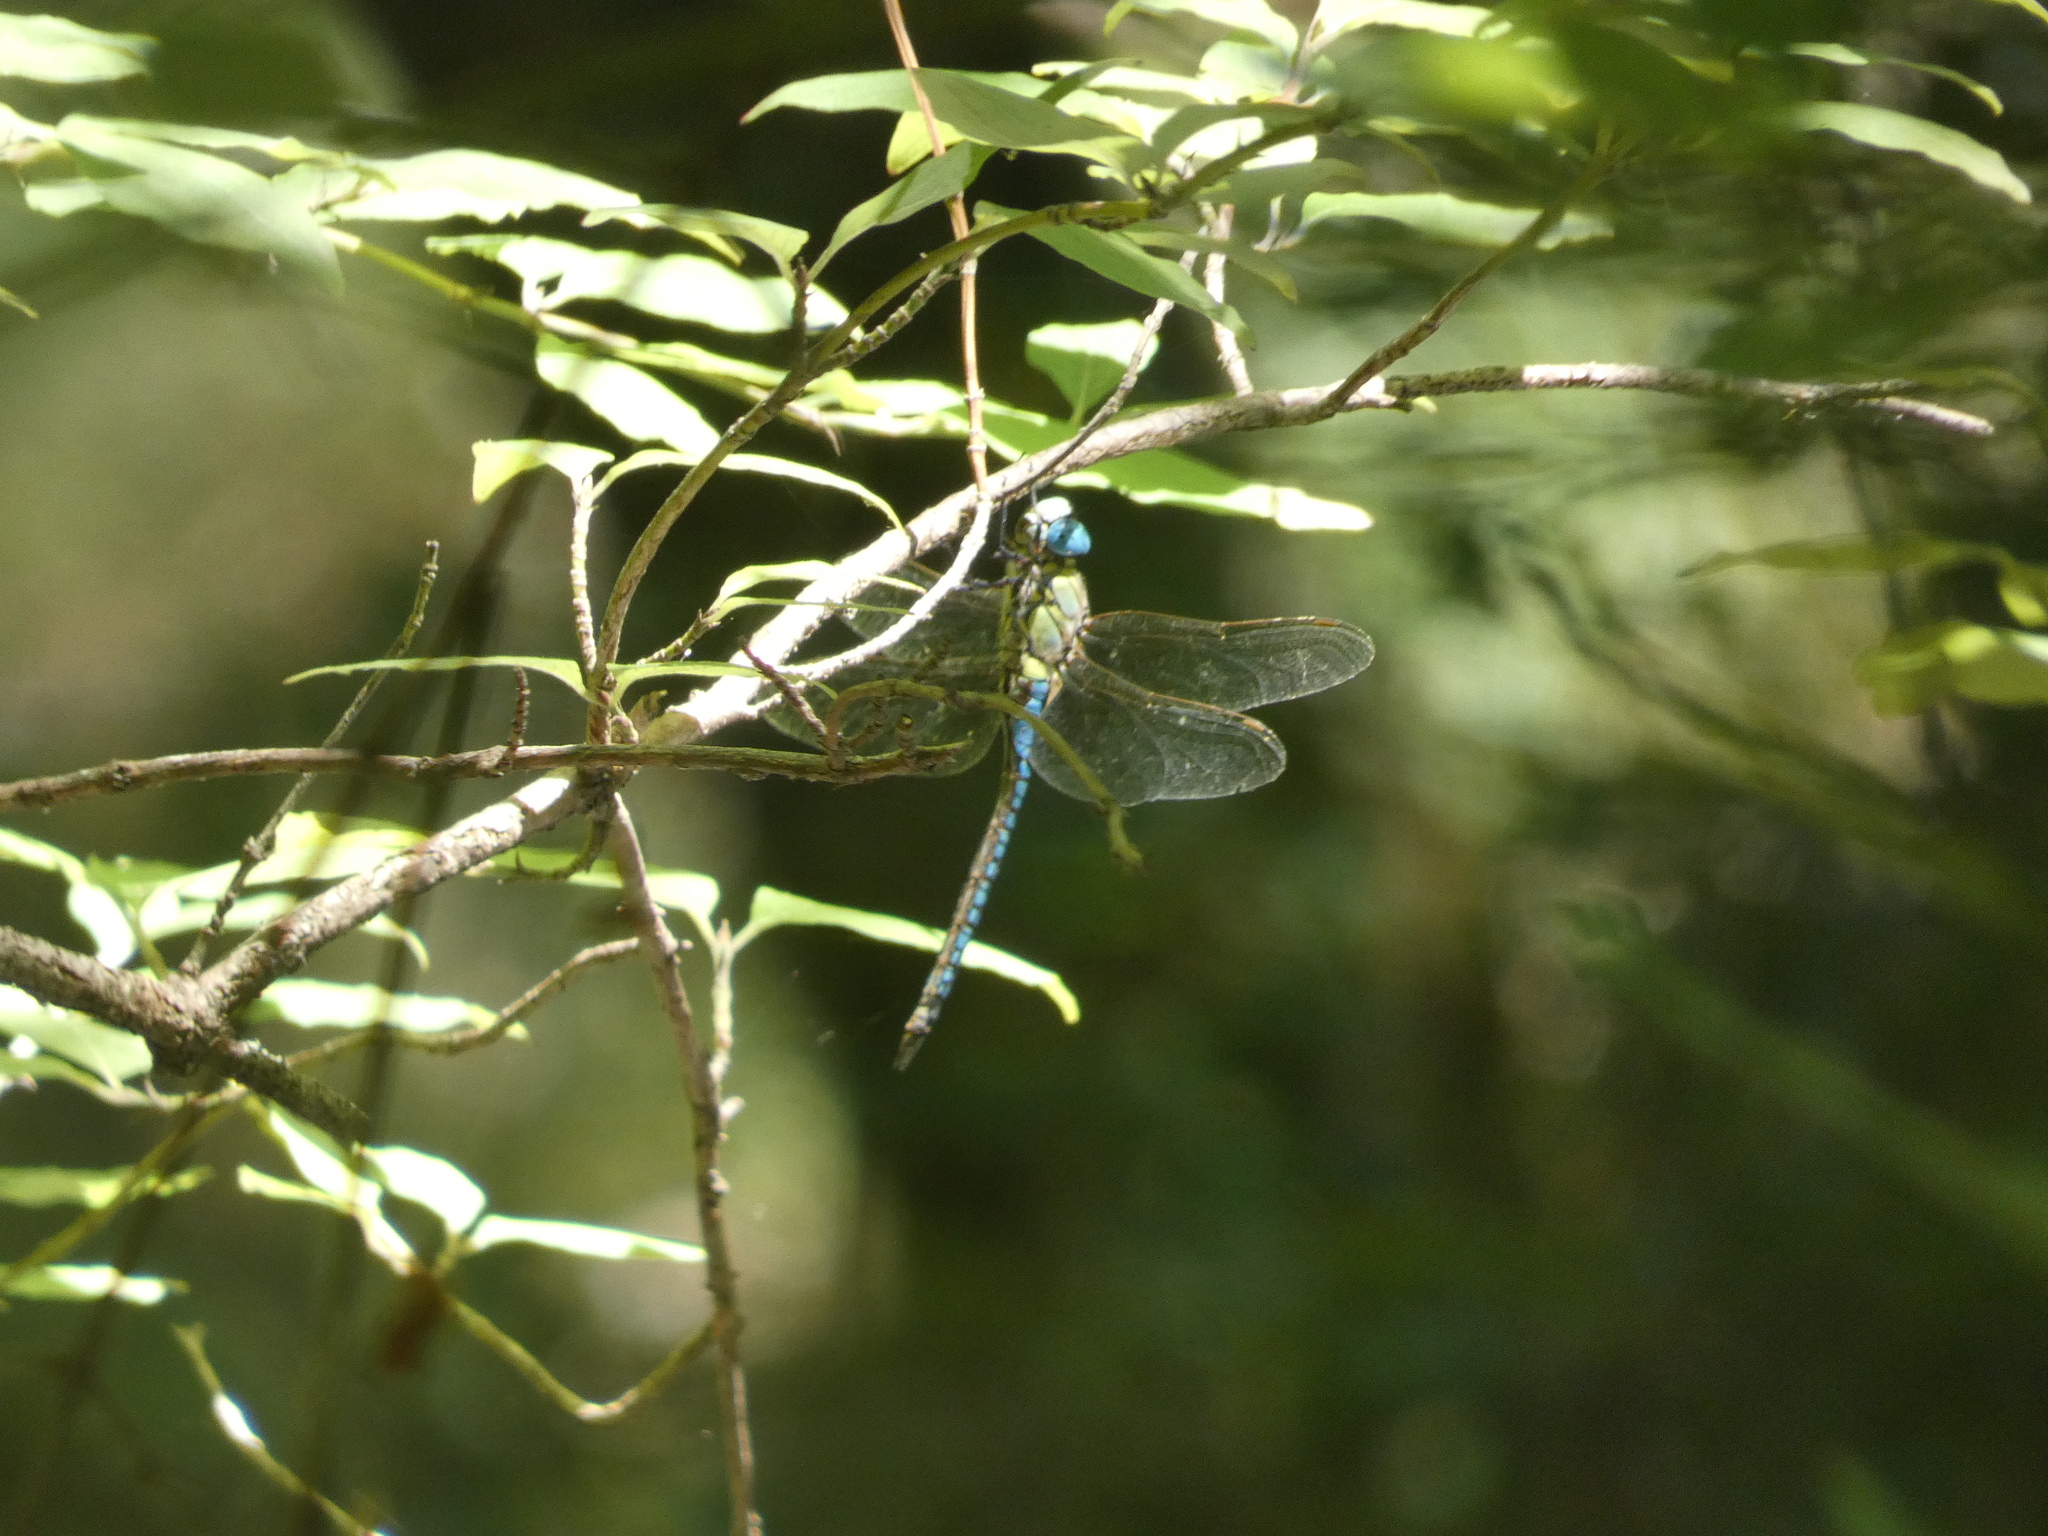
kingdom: Animalia
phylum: Arthropoda
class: Insecta
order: Odonata
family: Aeshnidae
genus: Aeshna
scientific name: Aeshna affinis
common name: Southern migrant hawker
